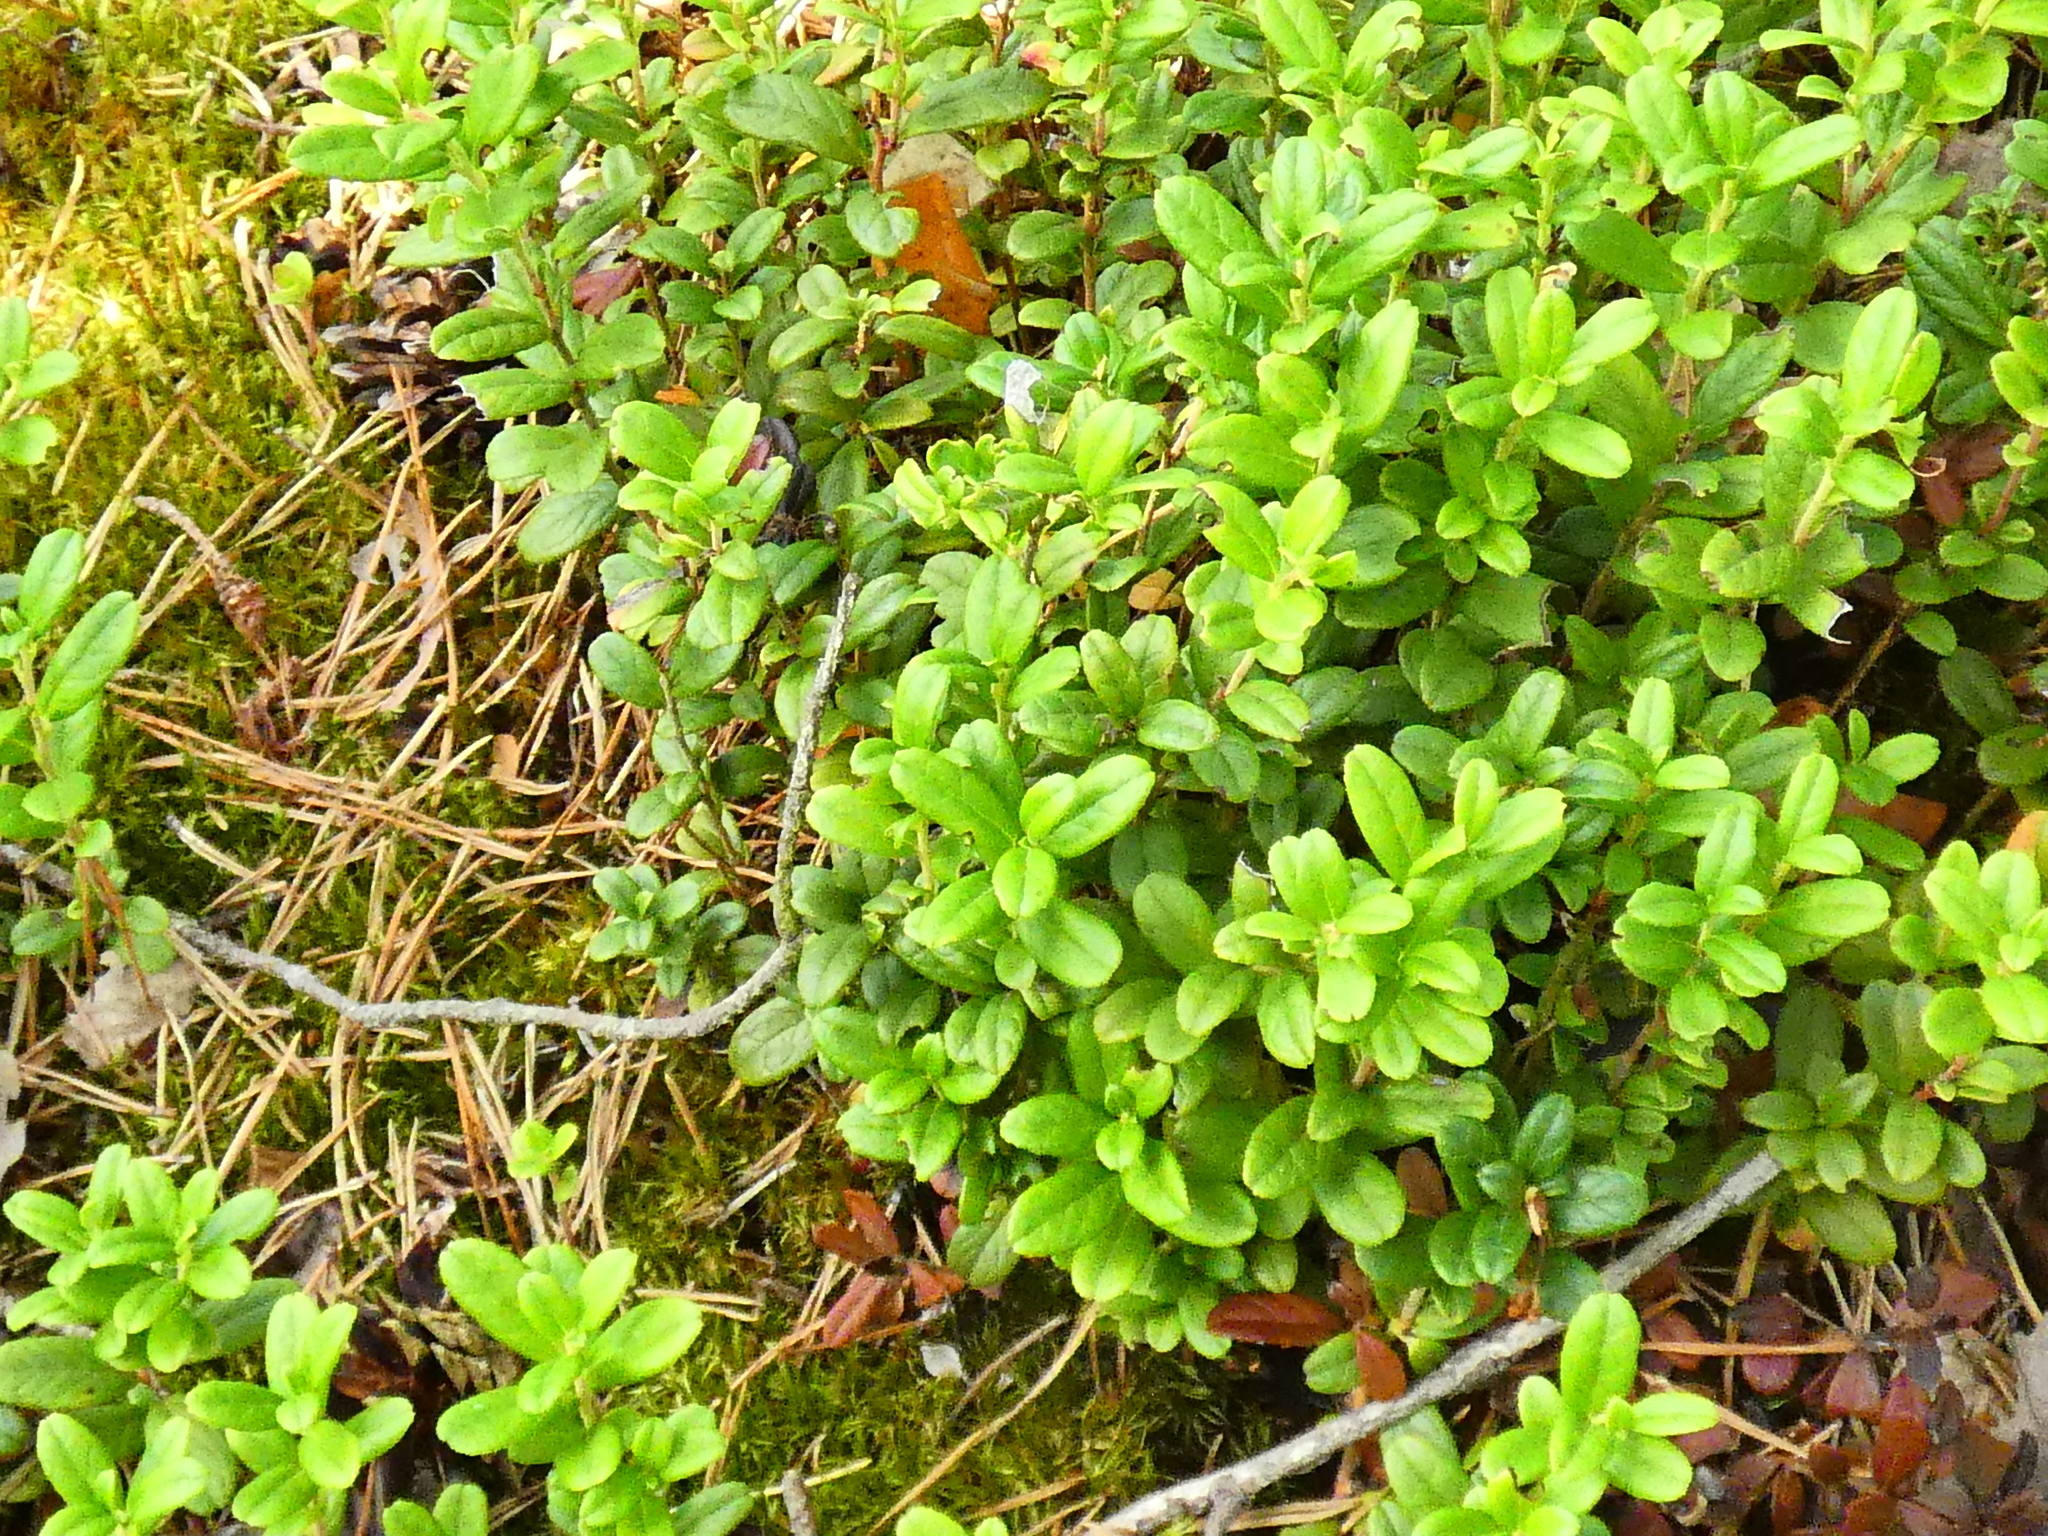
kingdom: Plantae
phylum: Tracheophyta
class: Magnoliopsida
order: Ericales
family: Ericaceae
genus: Vaccinium
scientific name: Vaccinium vitis-idaea
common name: Cowberry
